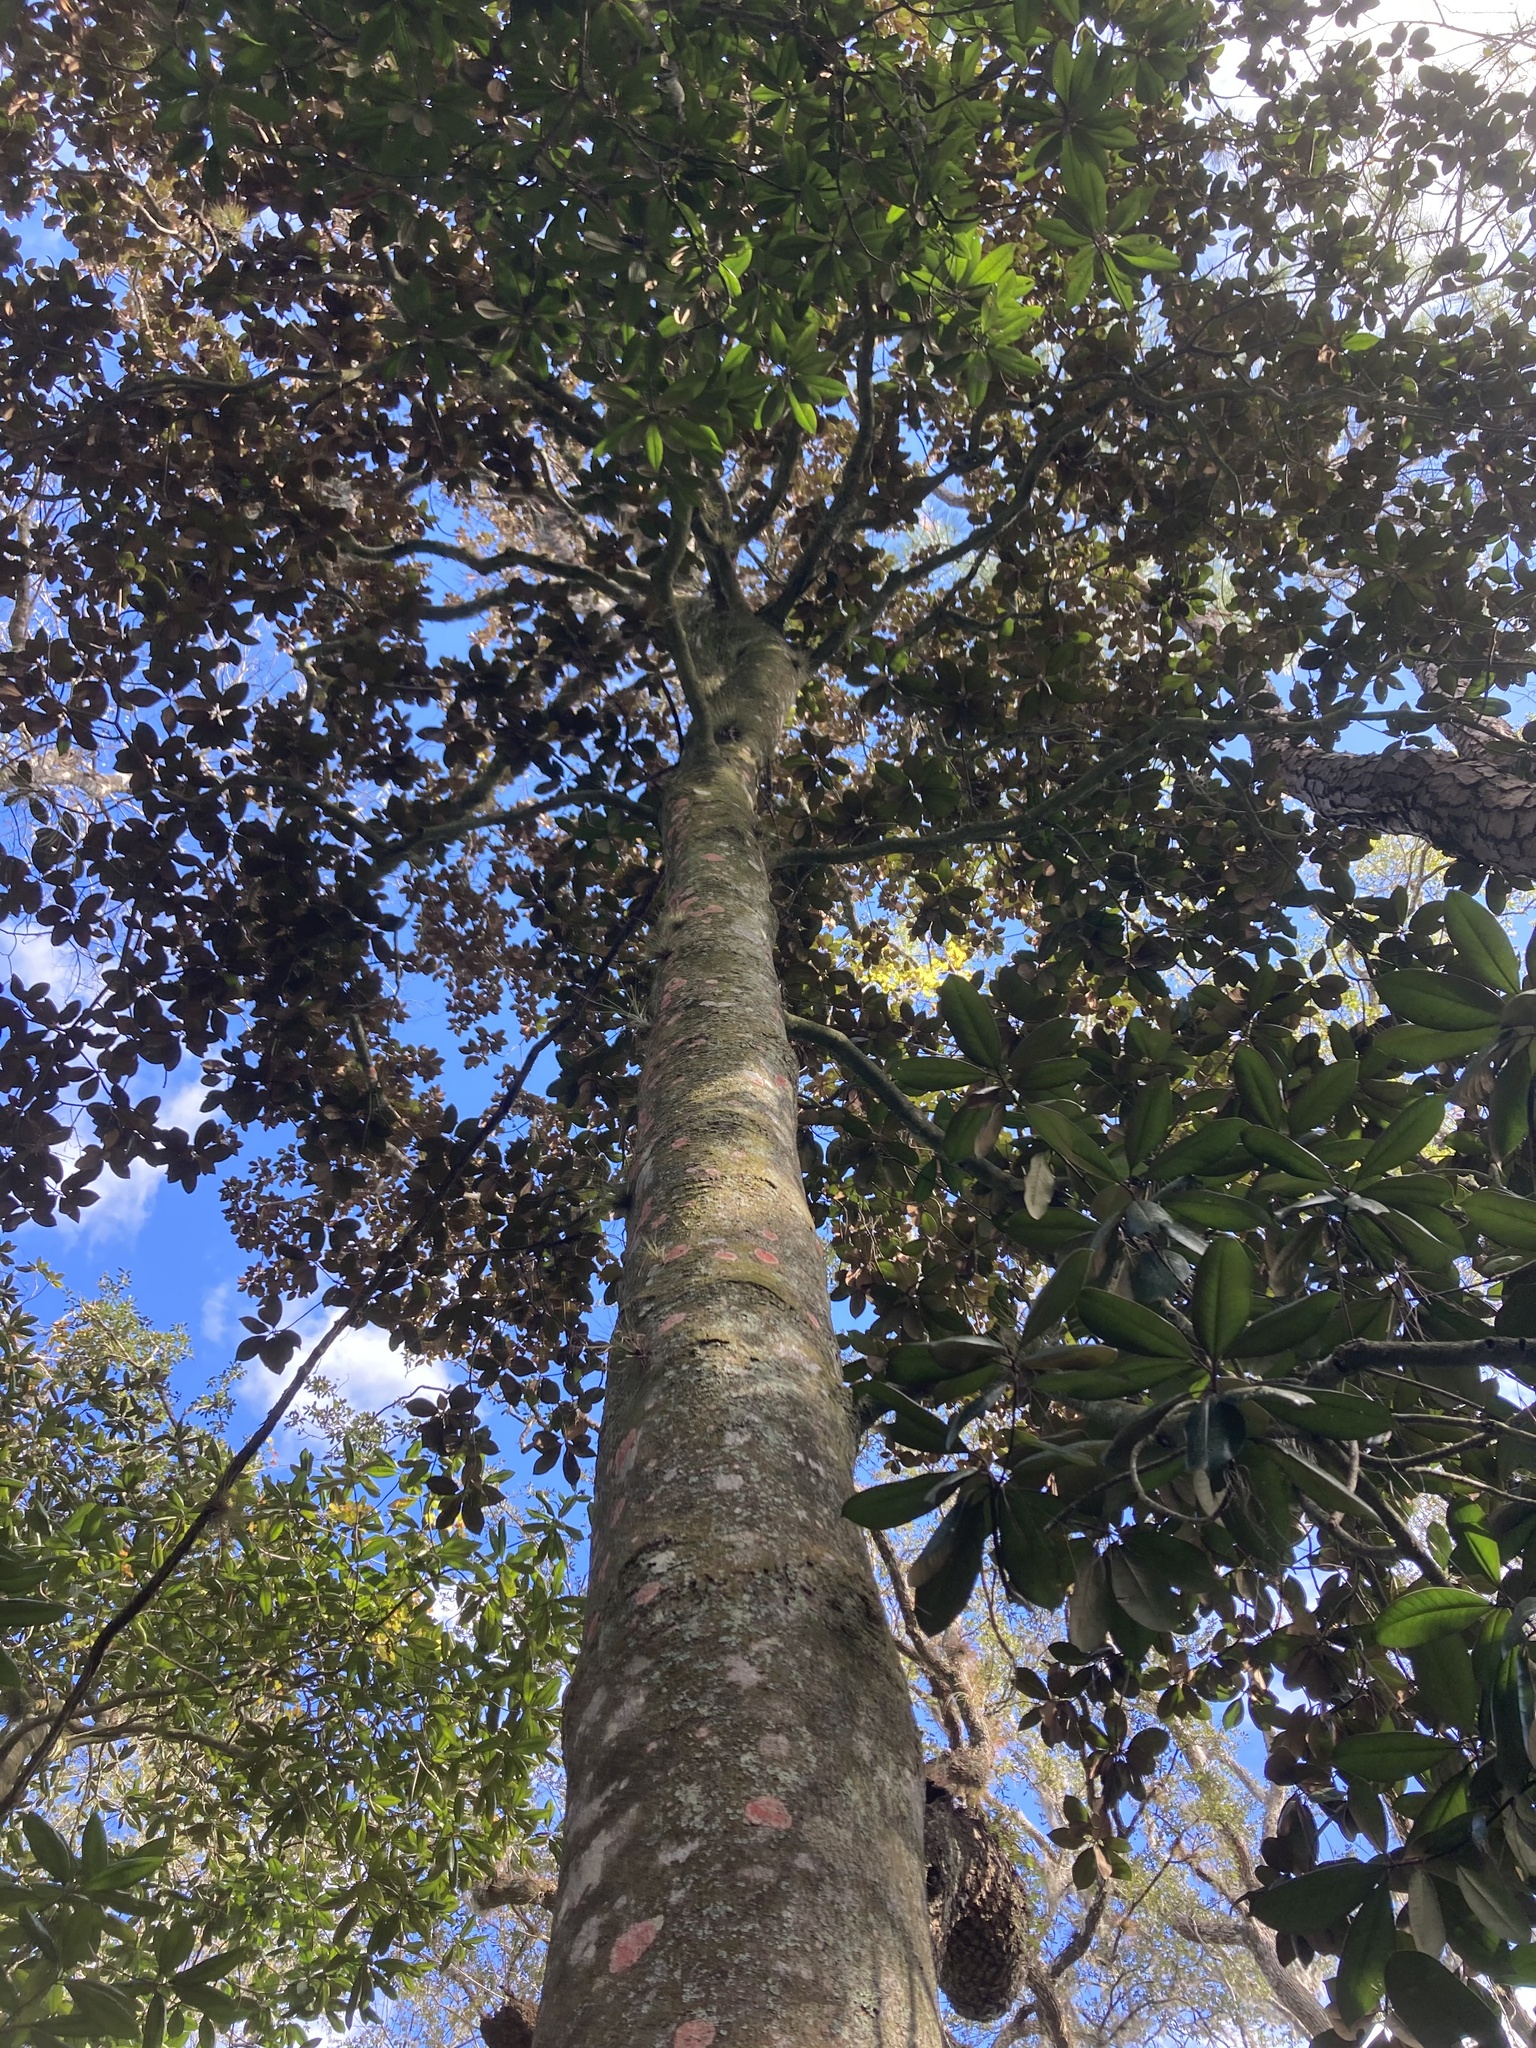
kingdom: Plantae
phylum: Tracheophyta
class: Magnoliopsida
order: Magnoliales
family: Magnoliaceae
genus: Magnolia
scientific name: Magnolia grandiflora
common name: Southern magnolia
